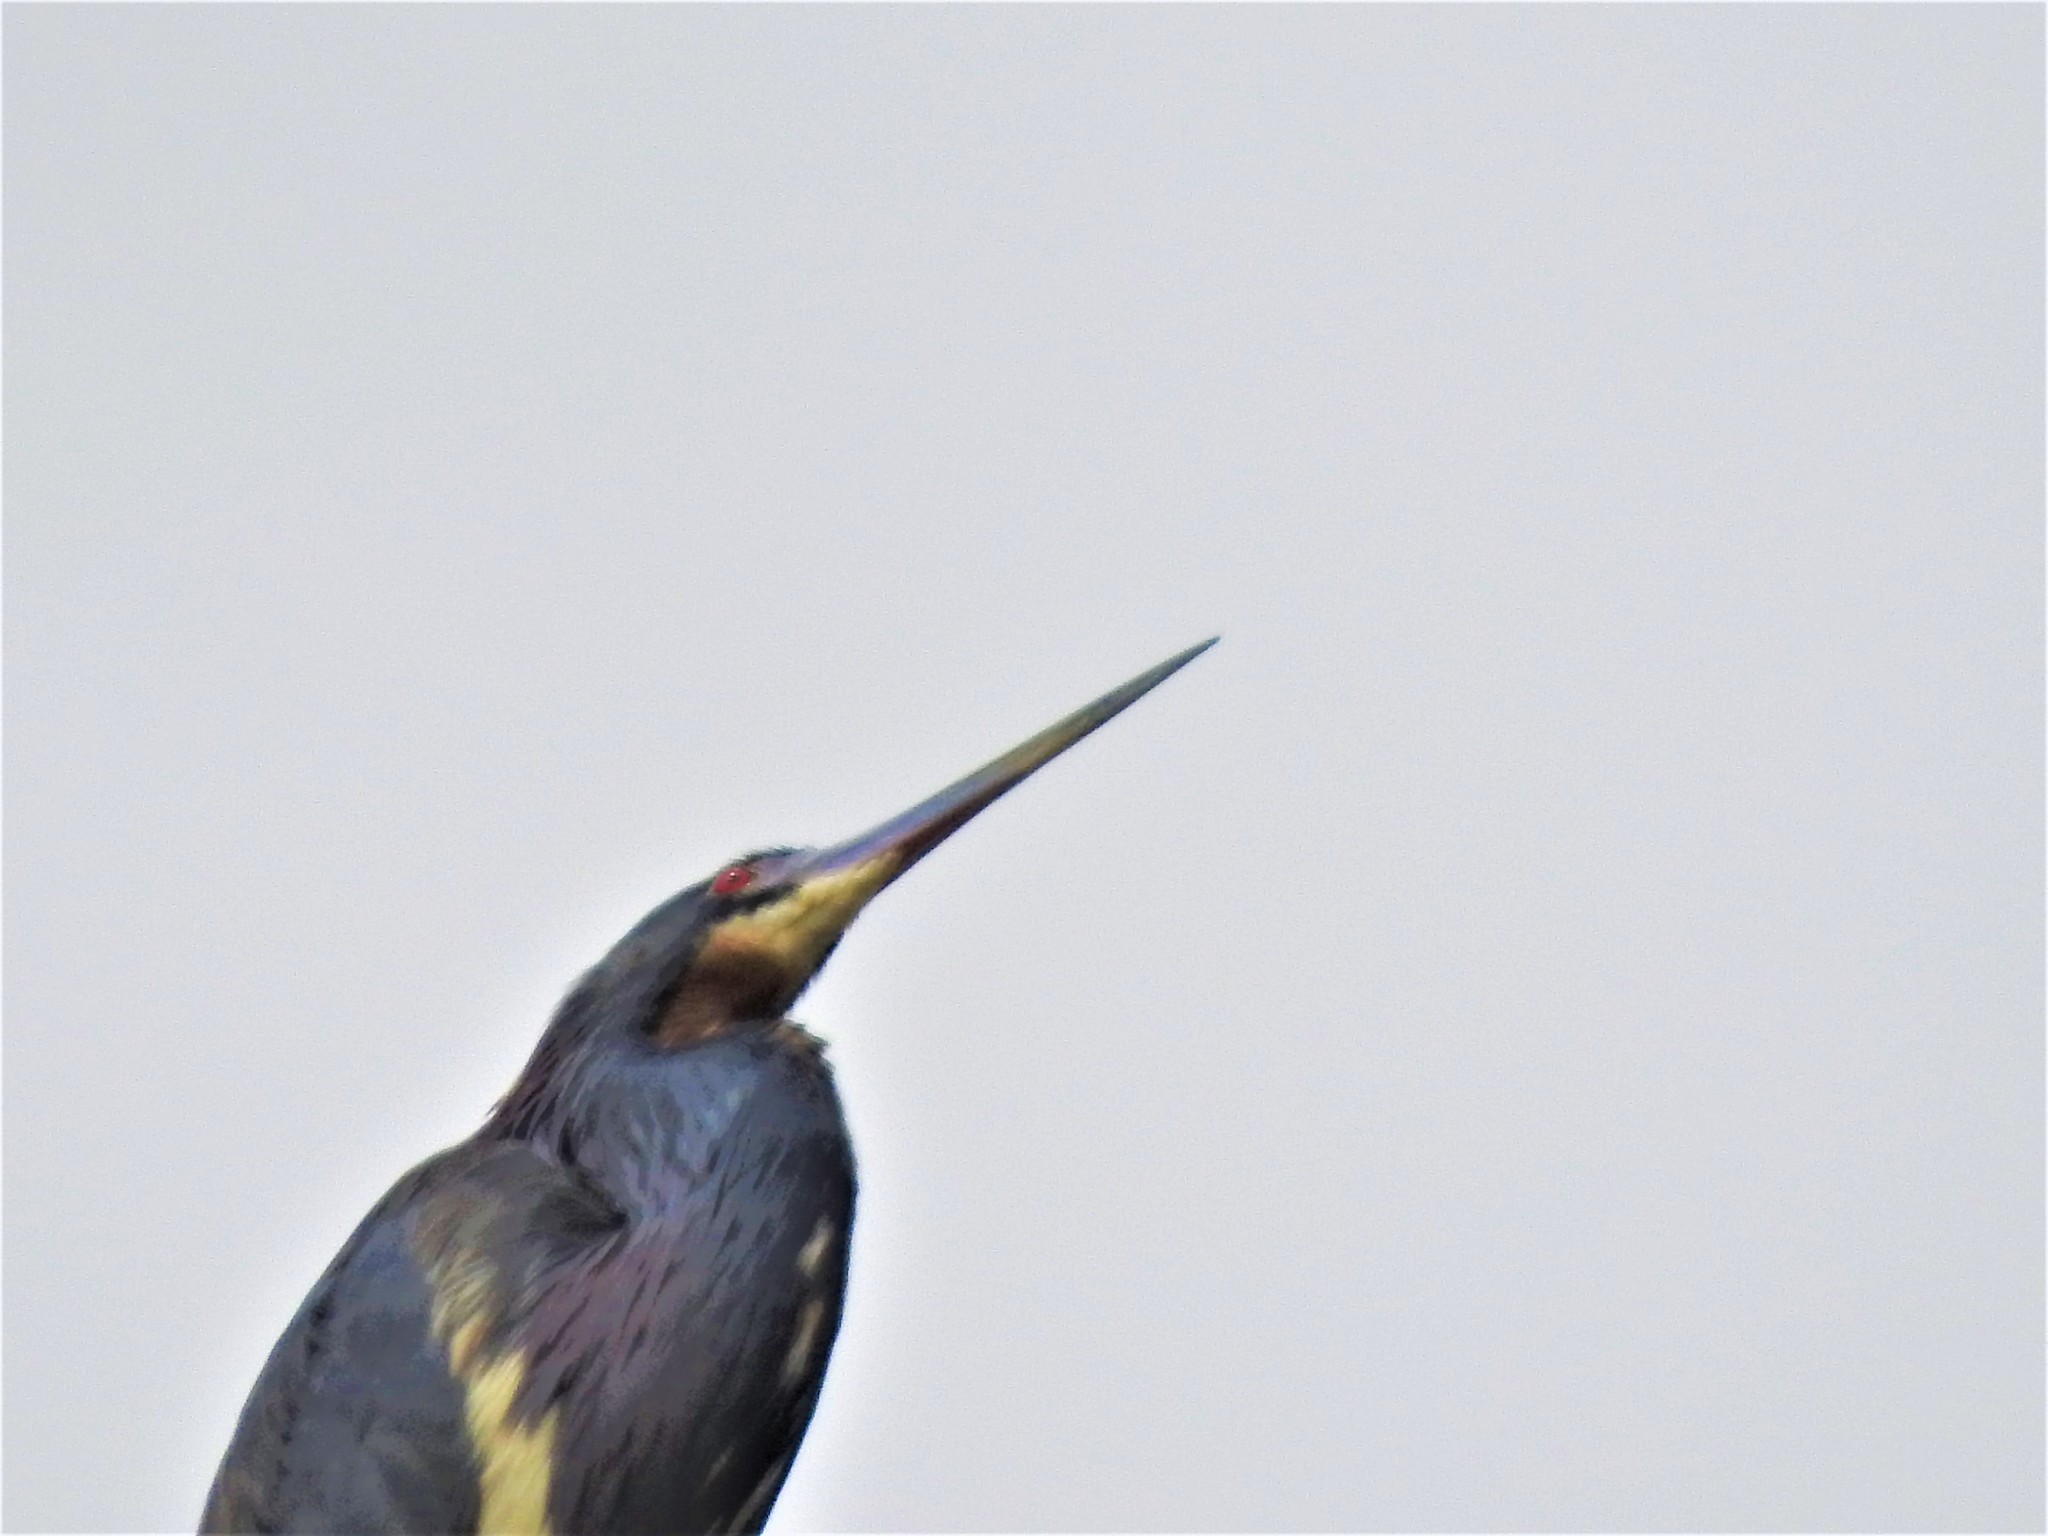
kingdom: Animalia
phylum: Chordata
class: Aves
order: Pelecaniformes
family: Ardeidae
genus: Egretta
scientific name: Egretta tricolor
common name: Tricolored heron
